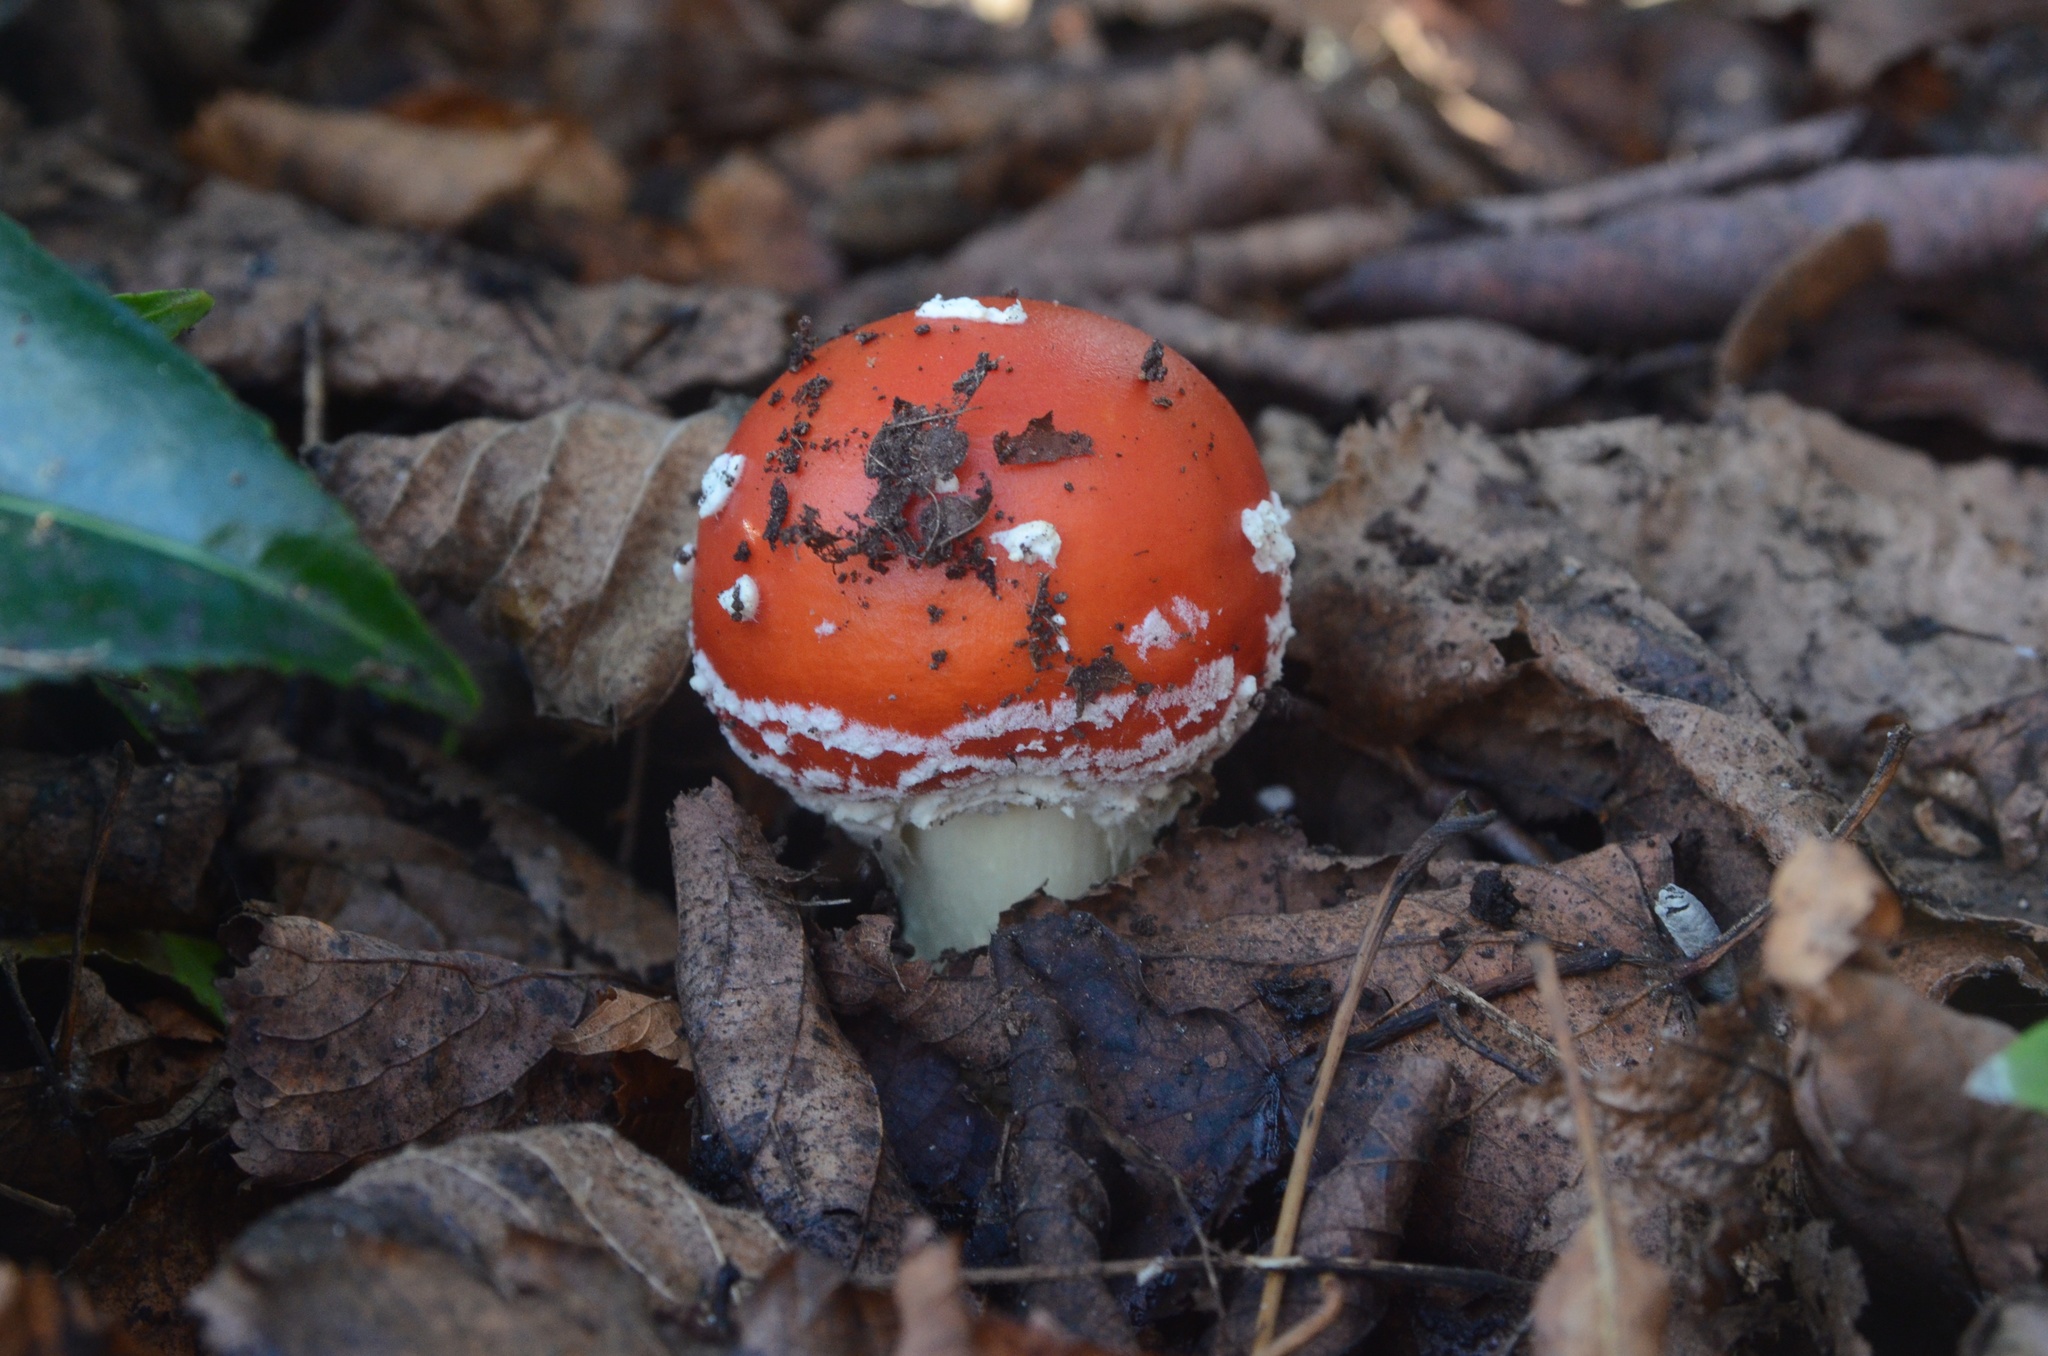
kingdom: Fungi
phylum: Basidiomycota
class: Agaricomycetes
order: Agaricales
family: Amanitaceae
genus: Amanita
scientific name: Amanita muscaria
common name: Fly agaric
